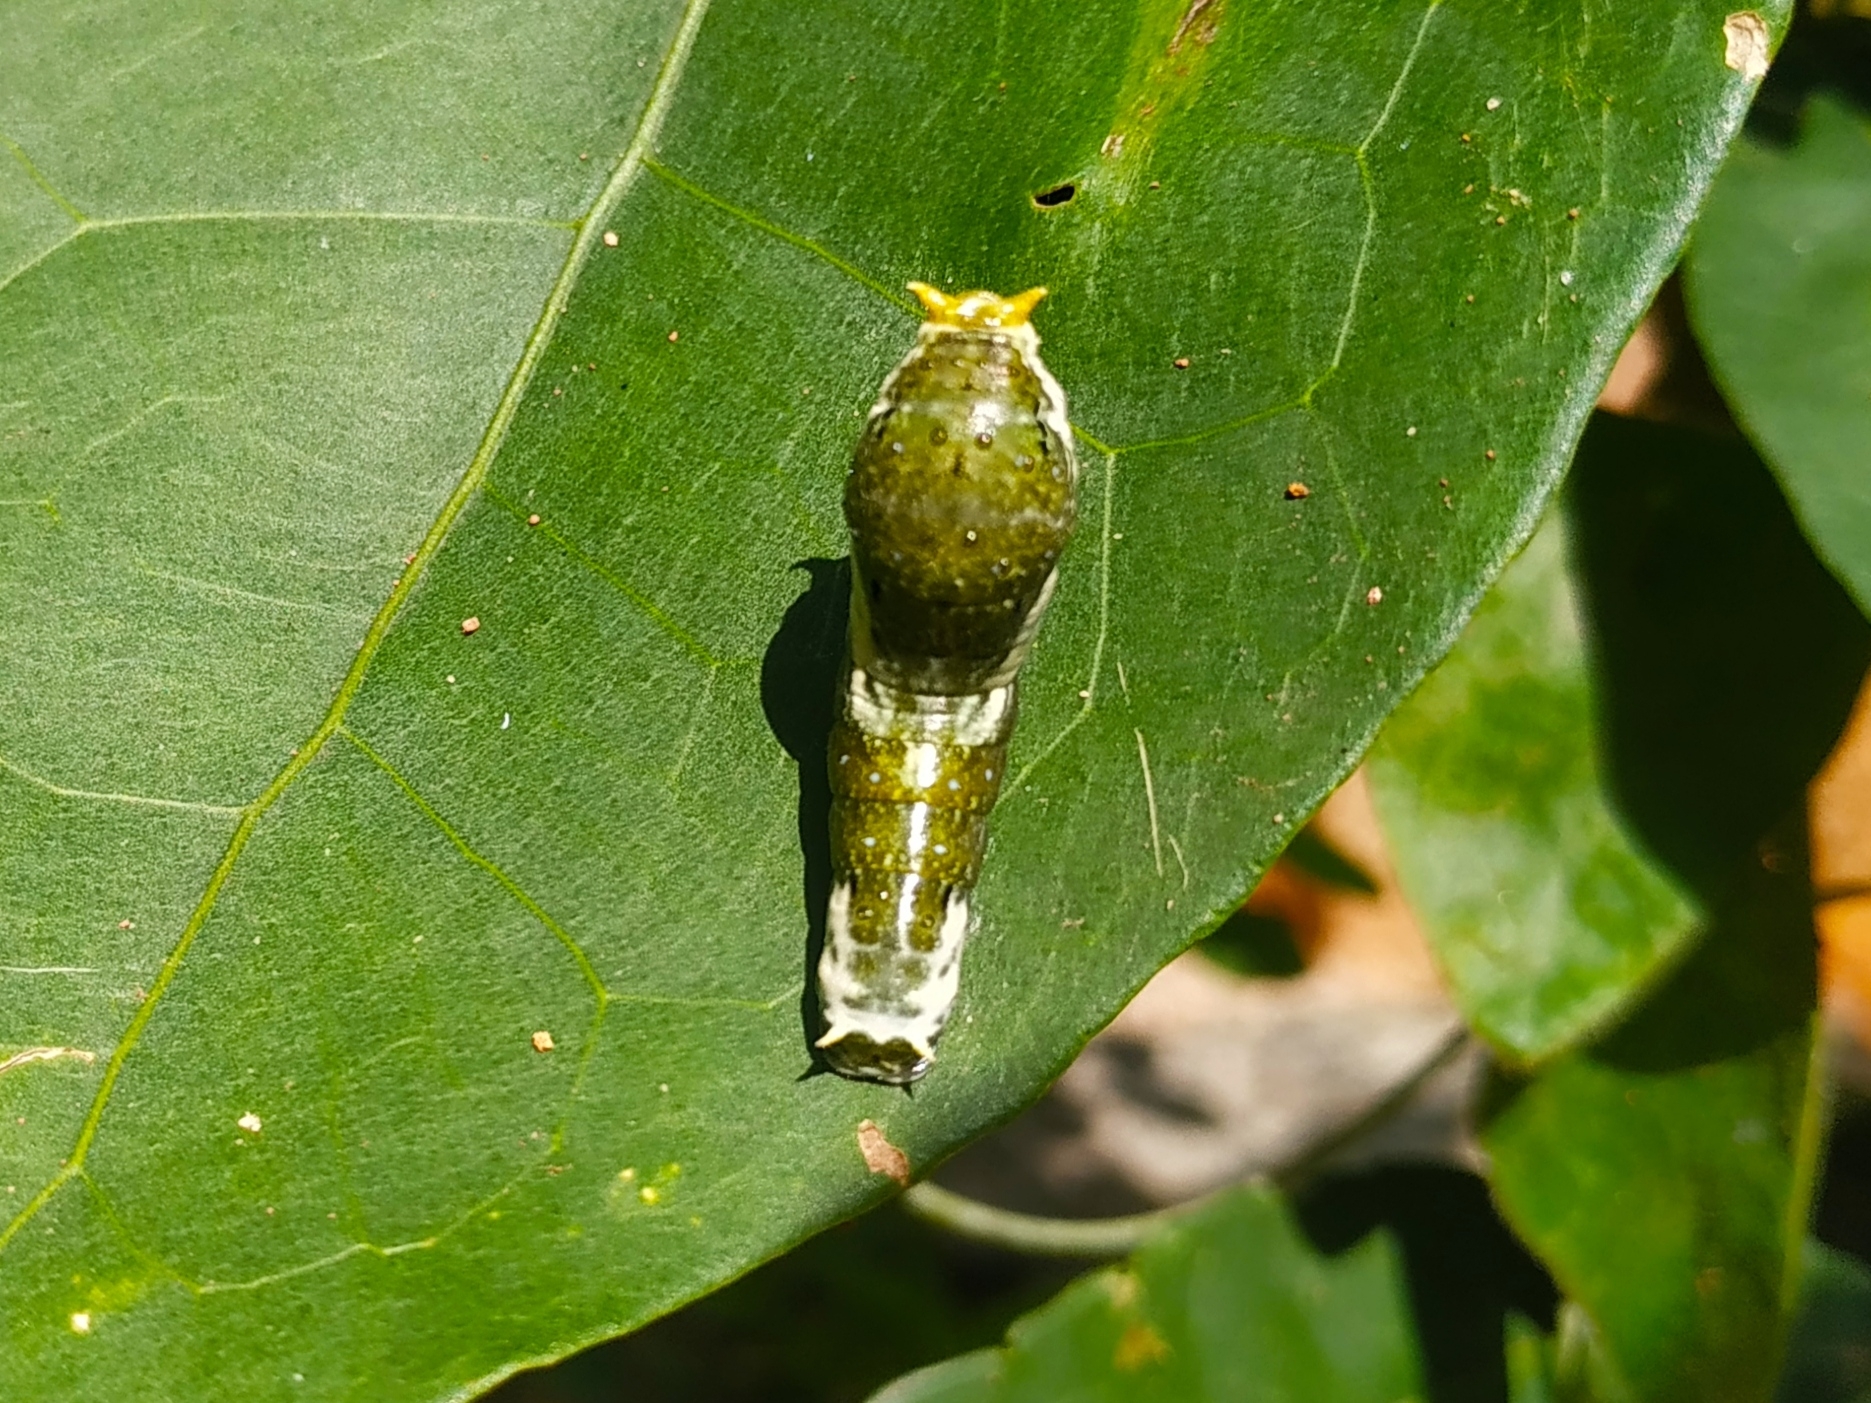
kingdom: Animalia
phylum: Arthropoda
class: Insecta
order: Lepidoptera
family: Papilionidae
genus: Papilio
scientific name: Papilio polytes
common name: Common mormon
